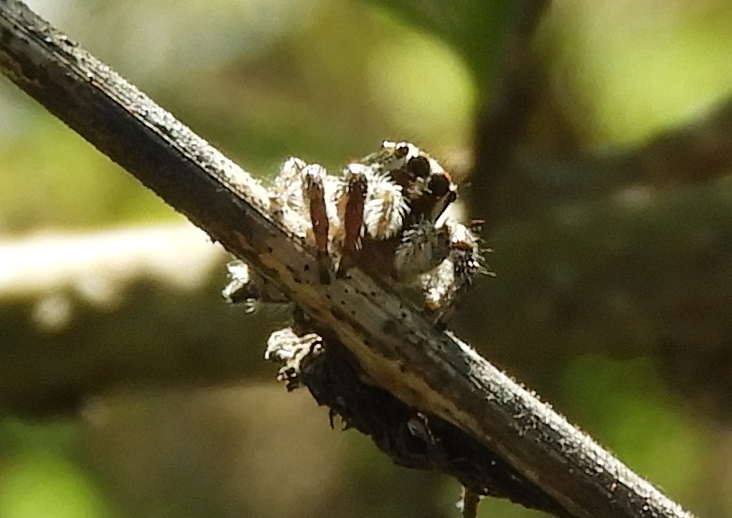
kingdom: Animalia
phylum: Arthropoda
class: Arachnida
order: Araneae
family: Salticidae
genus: Plexippus
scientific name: Plexippus paykulli
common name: Pantropical jumper
